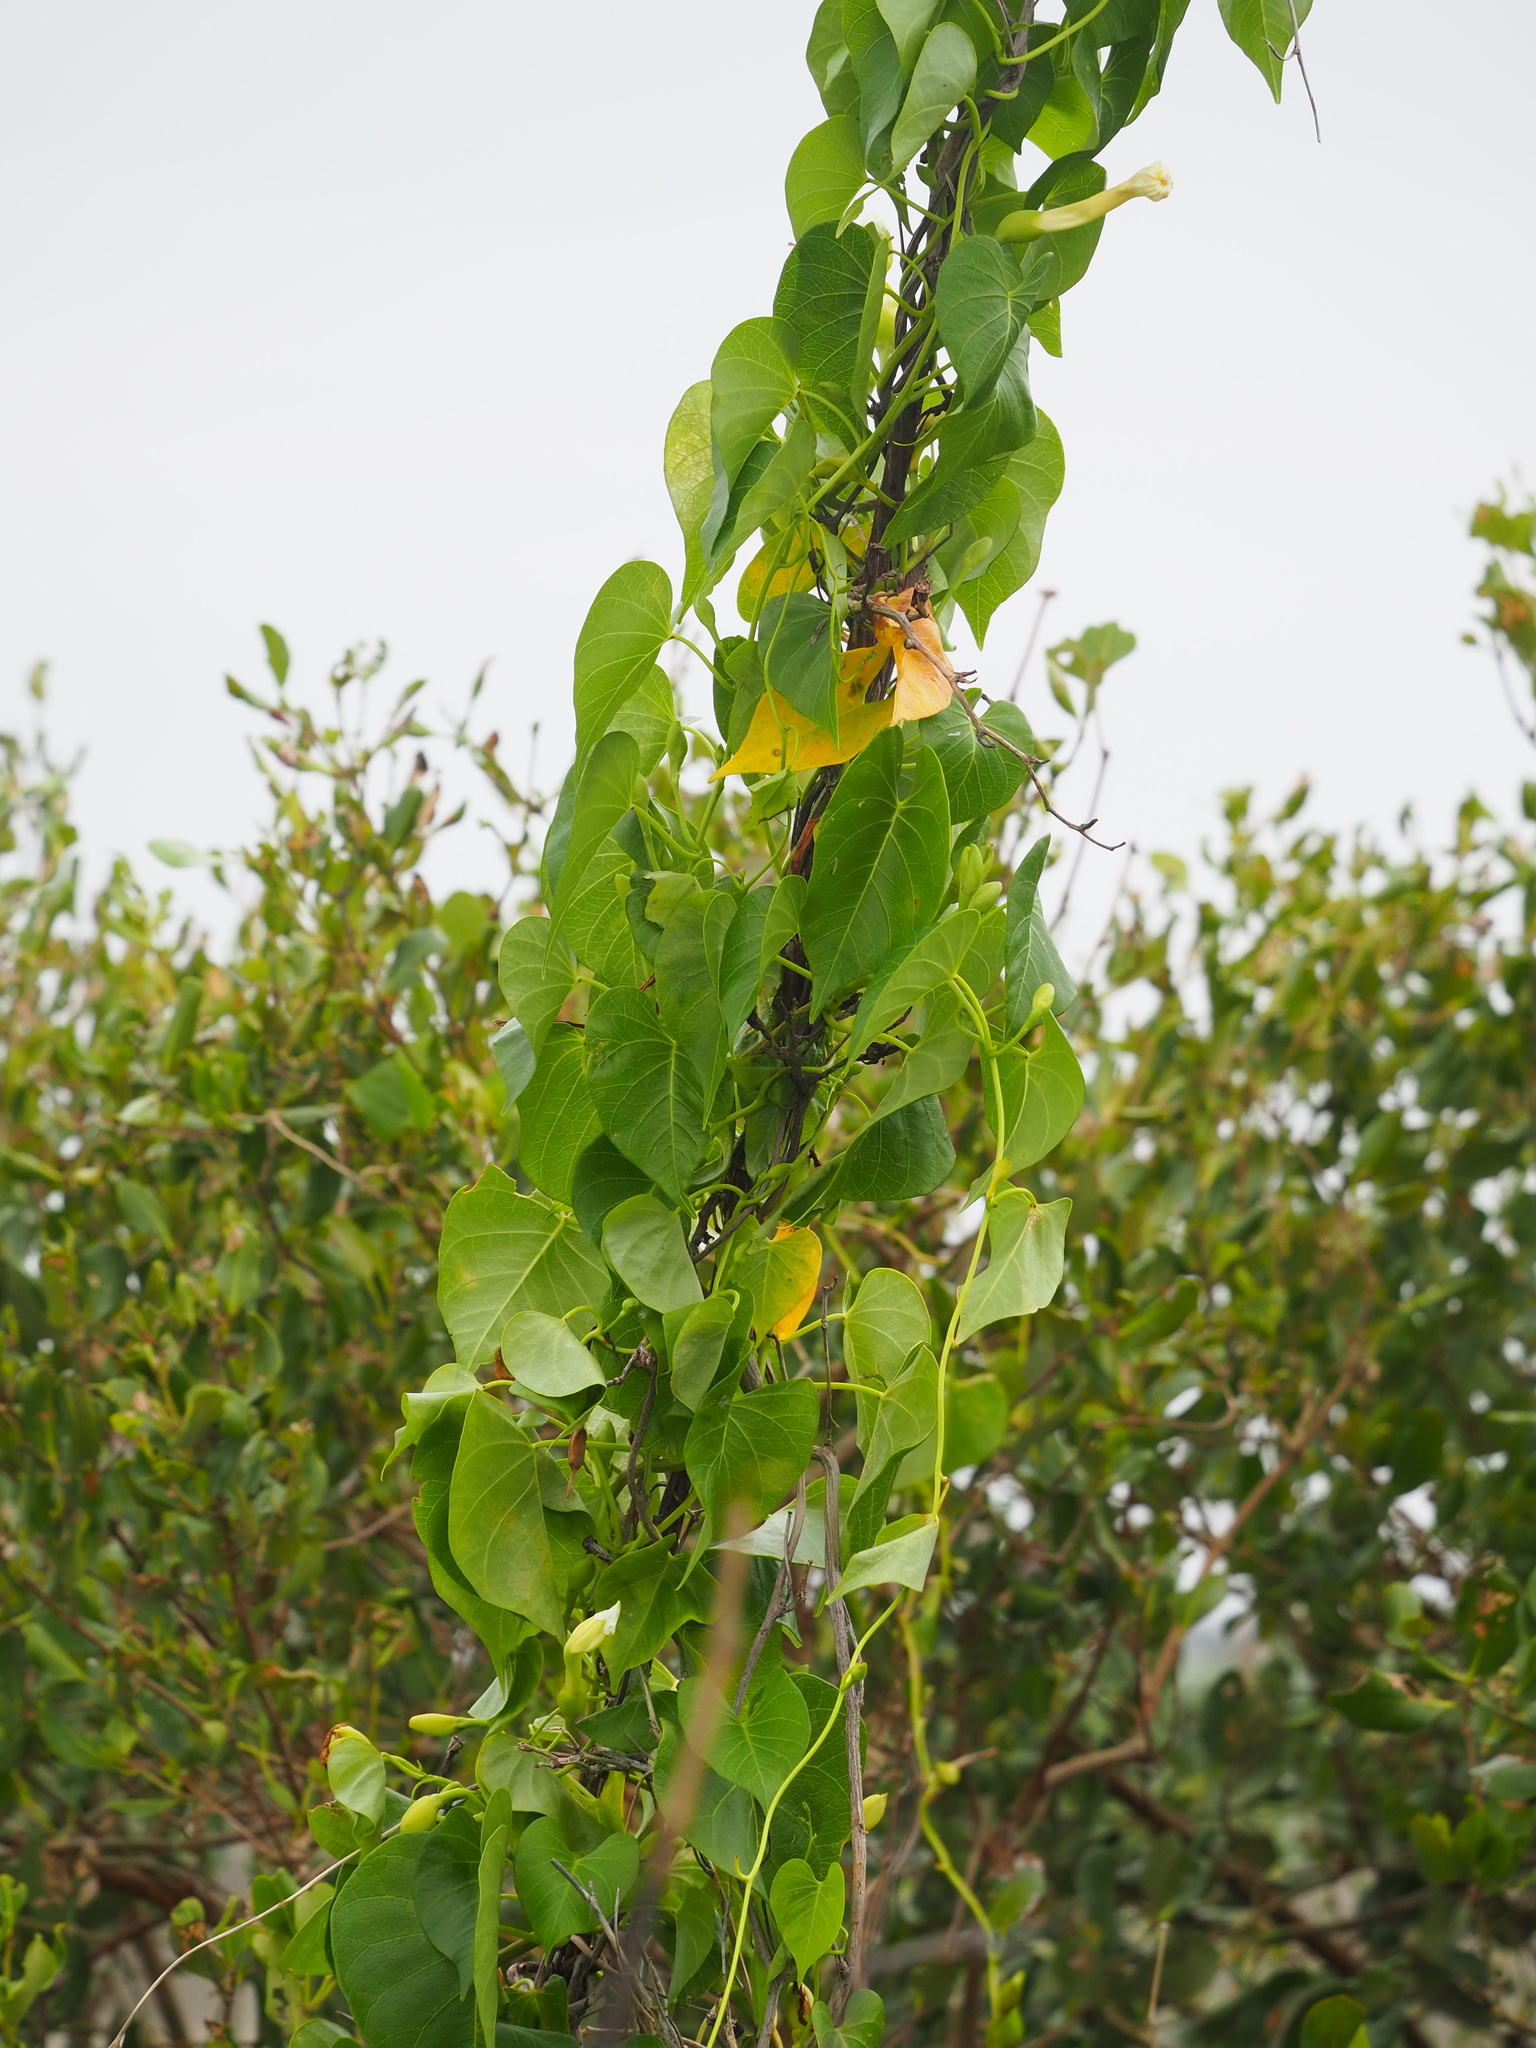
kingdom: Plantae
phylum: Tracheophyta
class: Magnoliopsida
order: Solanales
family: Convolvulaceae
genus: Ipomoea
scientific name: Ipomoea violacea
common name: Beach moonflower
